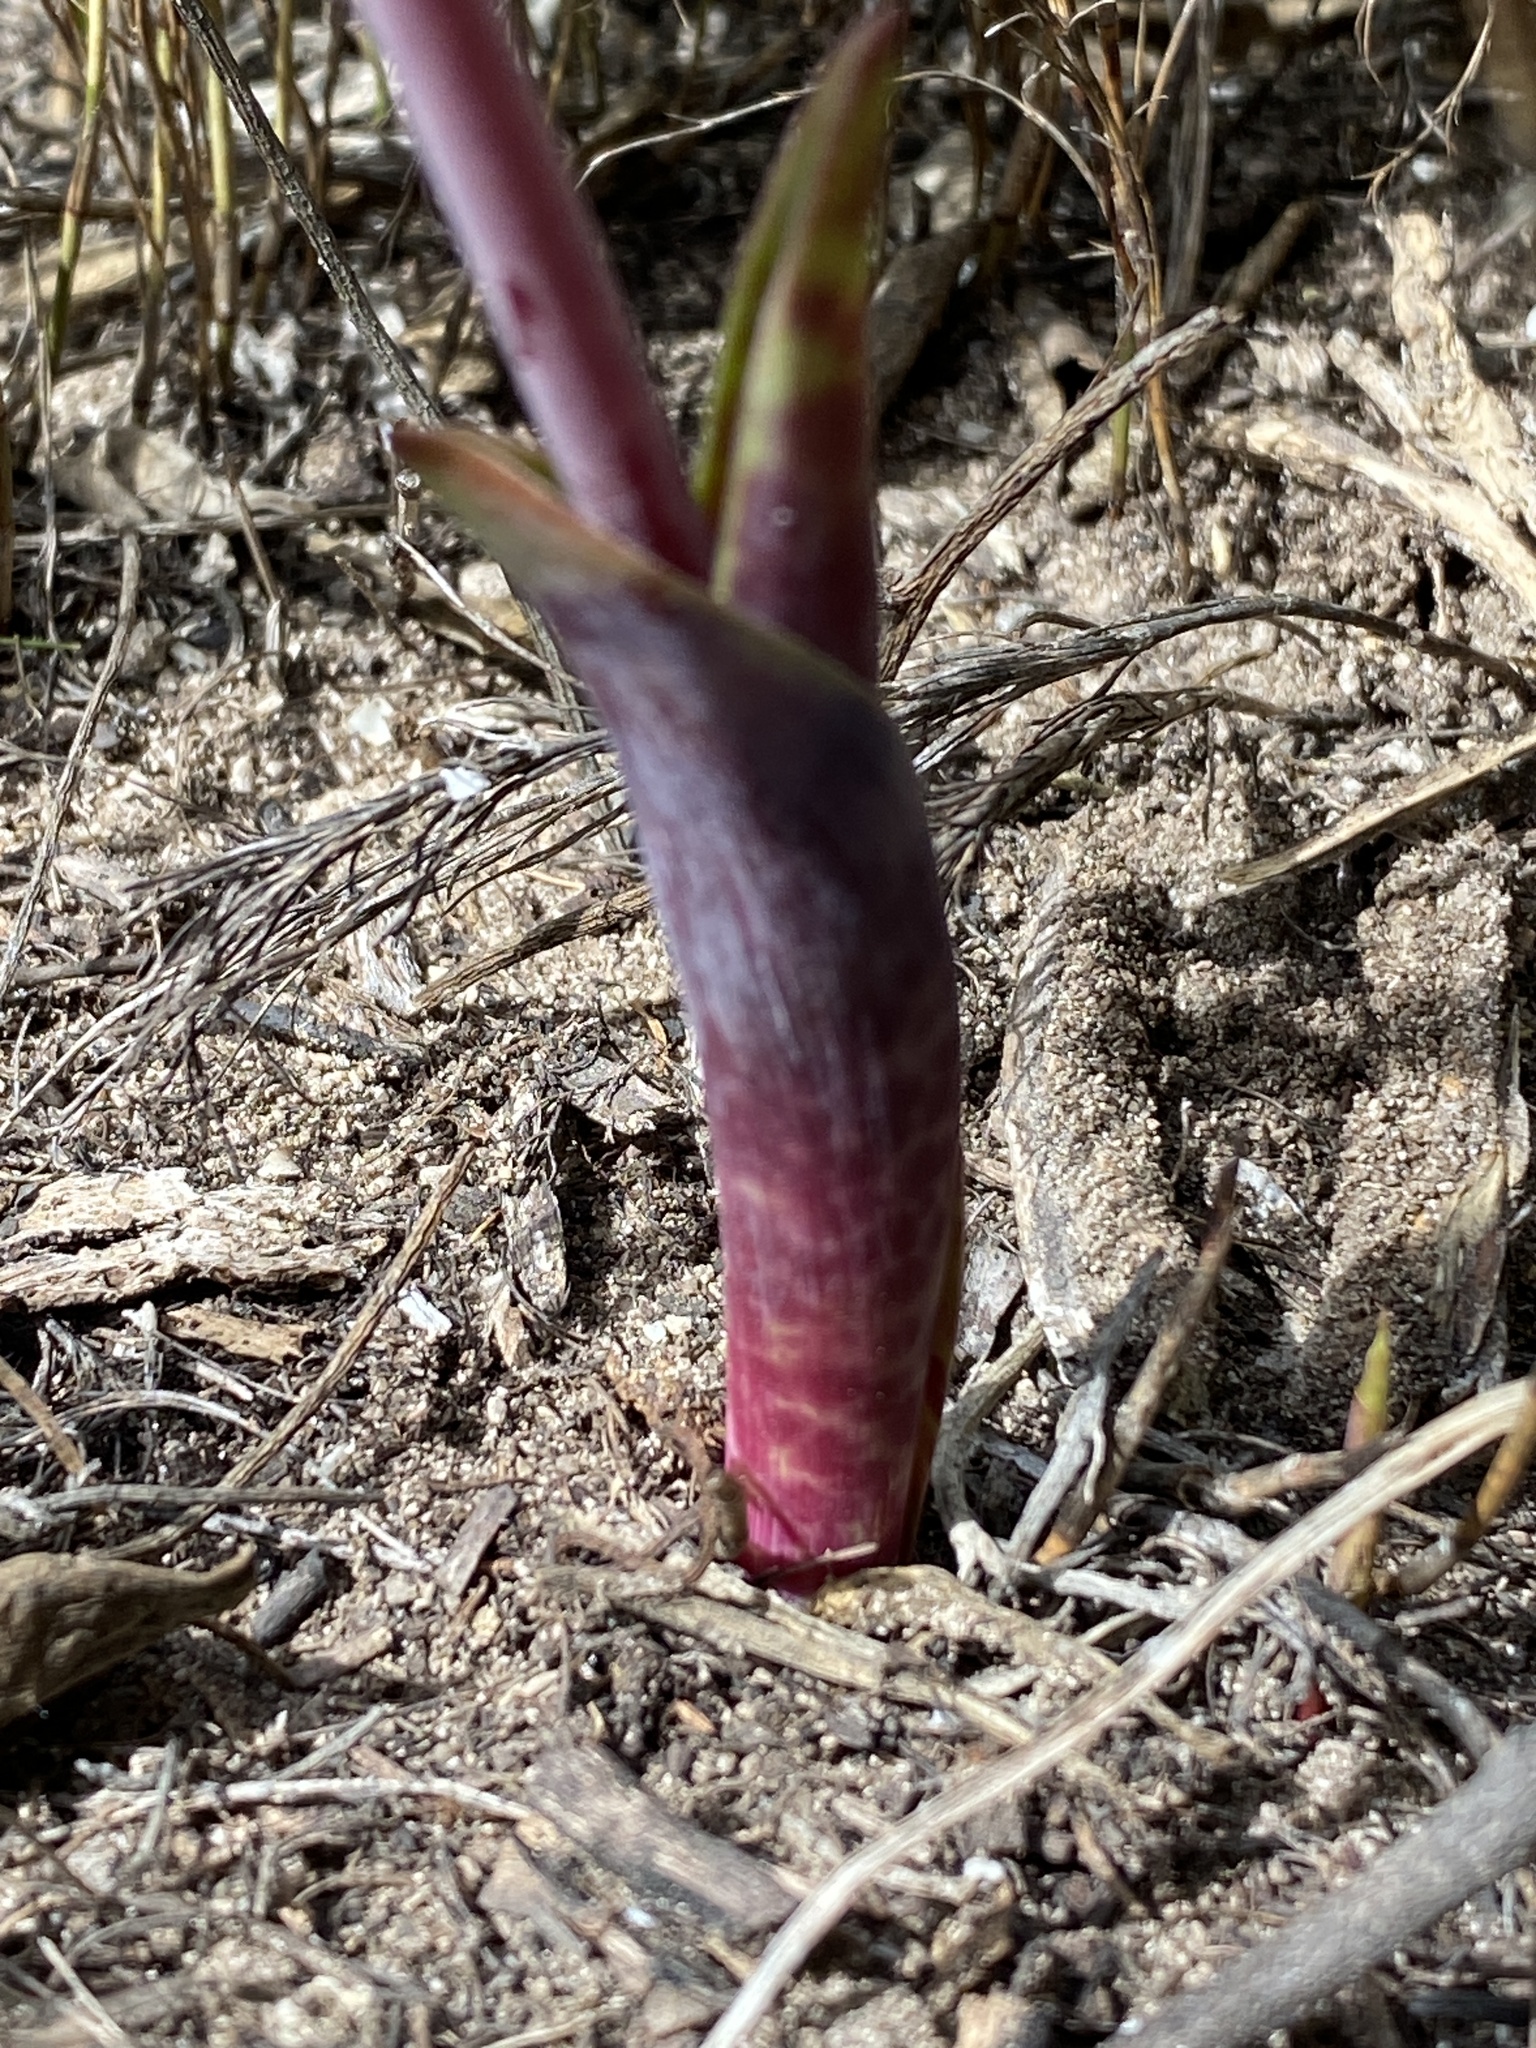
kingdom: Plantae
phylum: Tracheophyta
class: Liliopsida
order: Asparagales
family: Asparagaceae
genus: Lachenalia
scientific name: Lachenalia punctata
